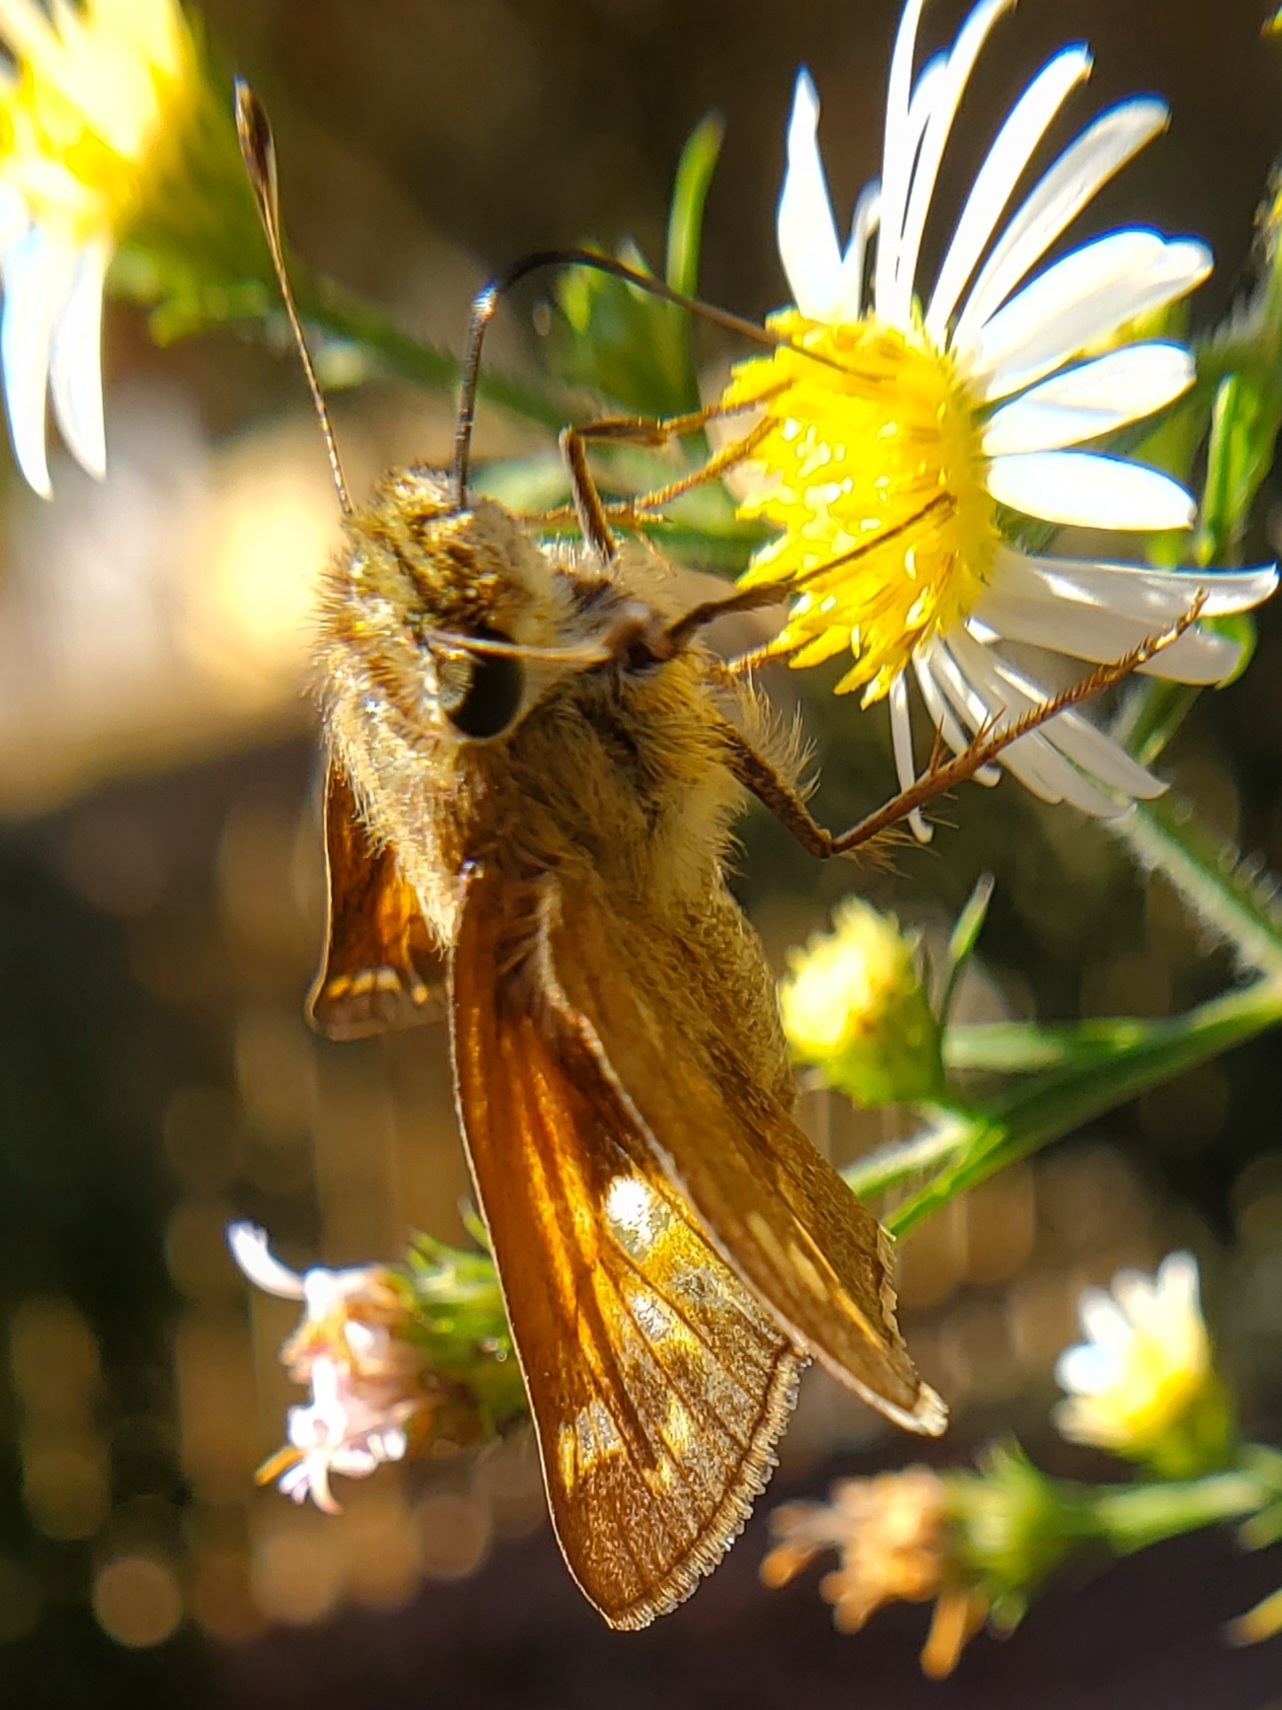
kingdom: Animalia
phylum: Arthropoda
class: Insecta
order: Lepidoptera
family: Hesperiidae
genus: Atalopedes
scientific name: Atalopedes
